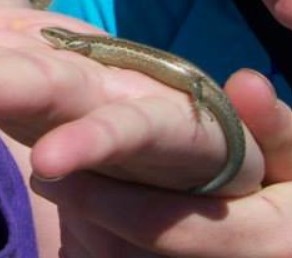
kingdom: Animalia
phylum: Chordata
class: Squamata
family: Scincidae
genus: Oligosoma
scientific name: Oligosoma polychroma
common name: Common new zealand skink
